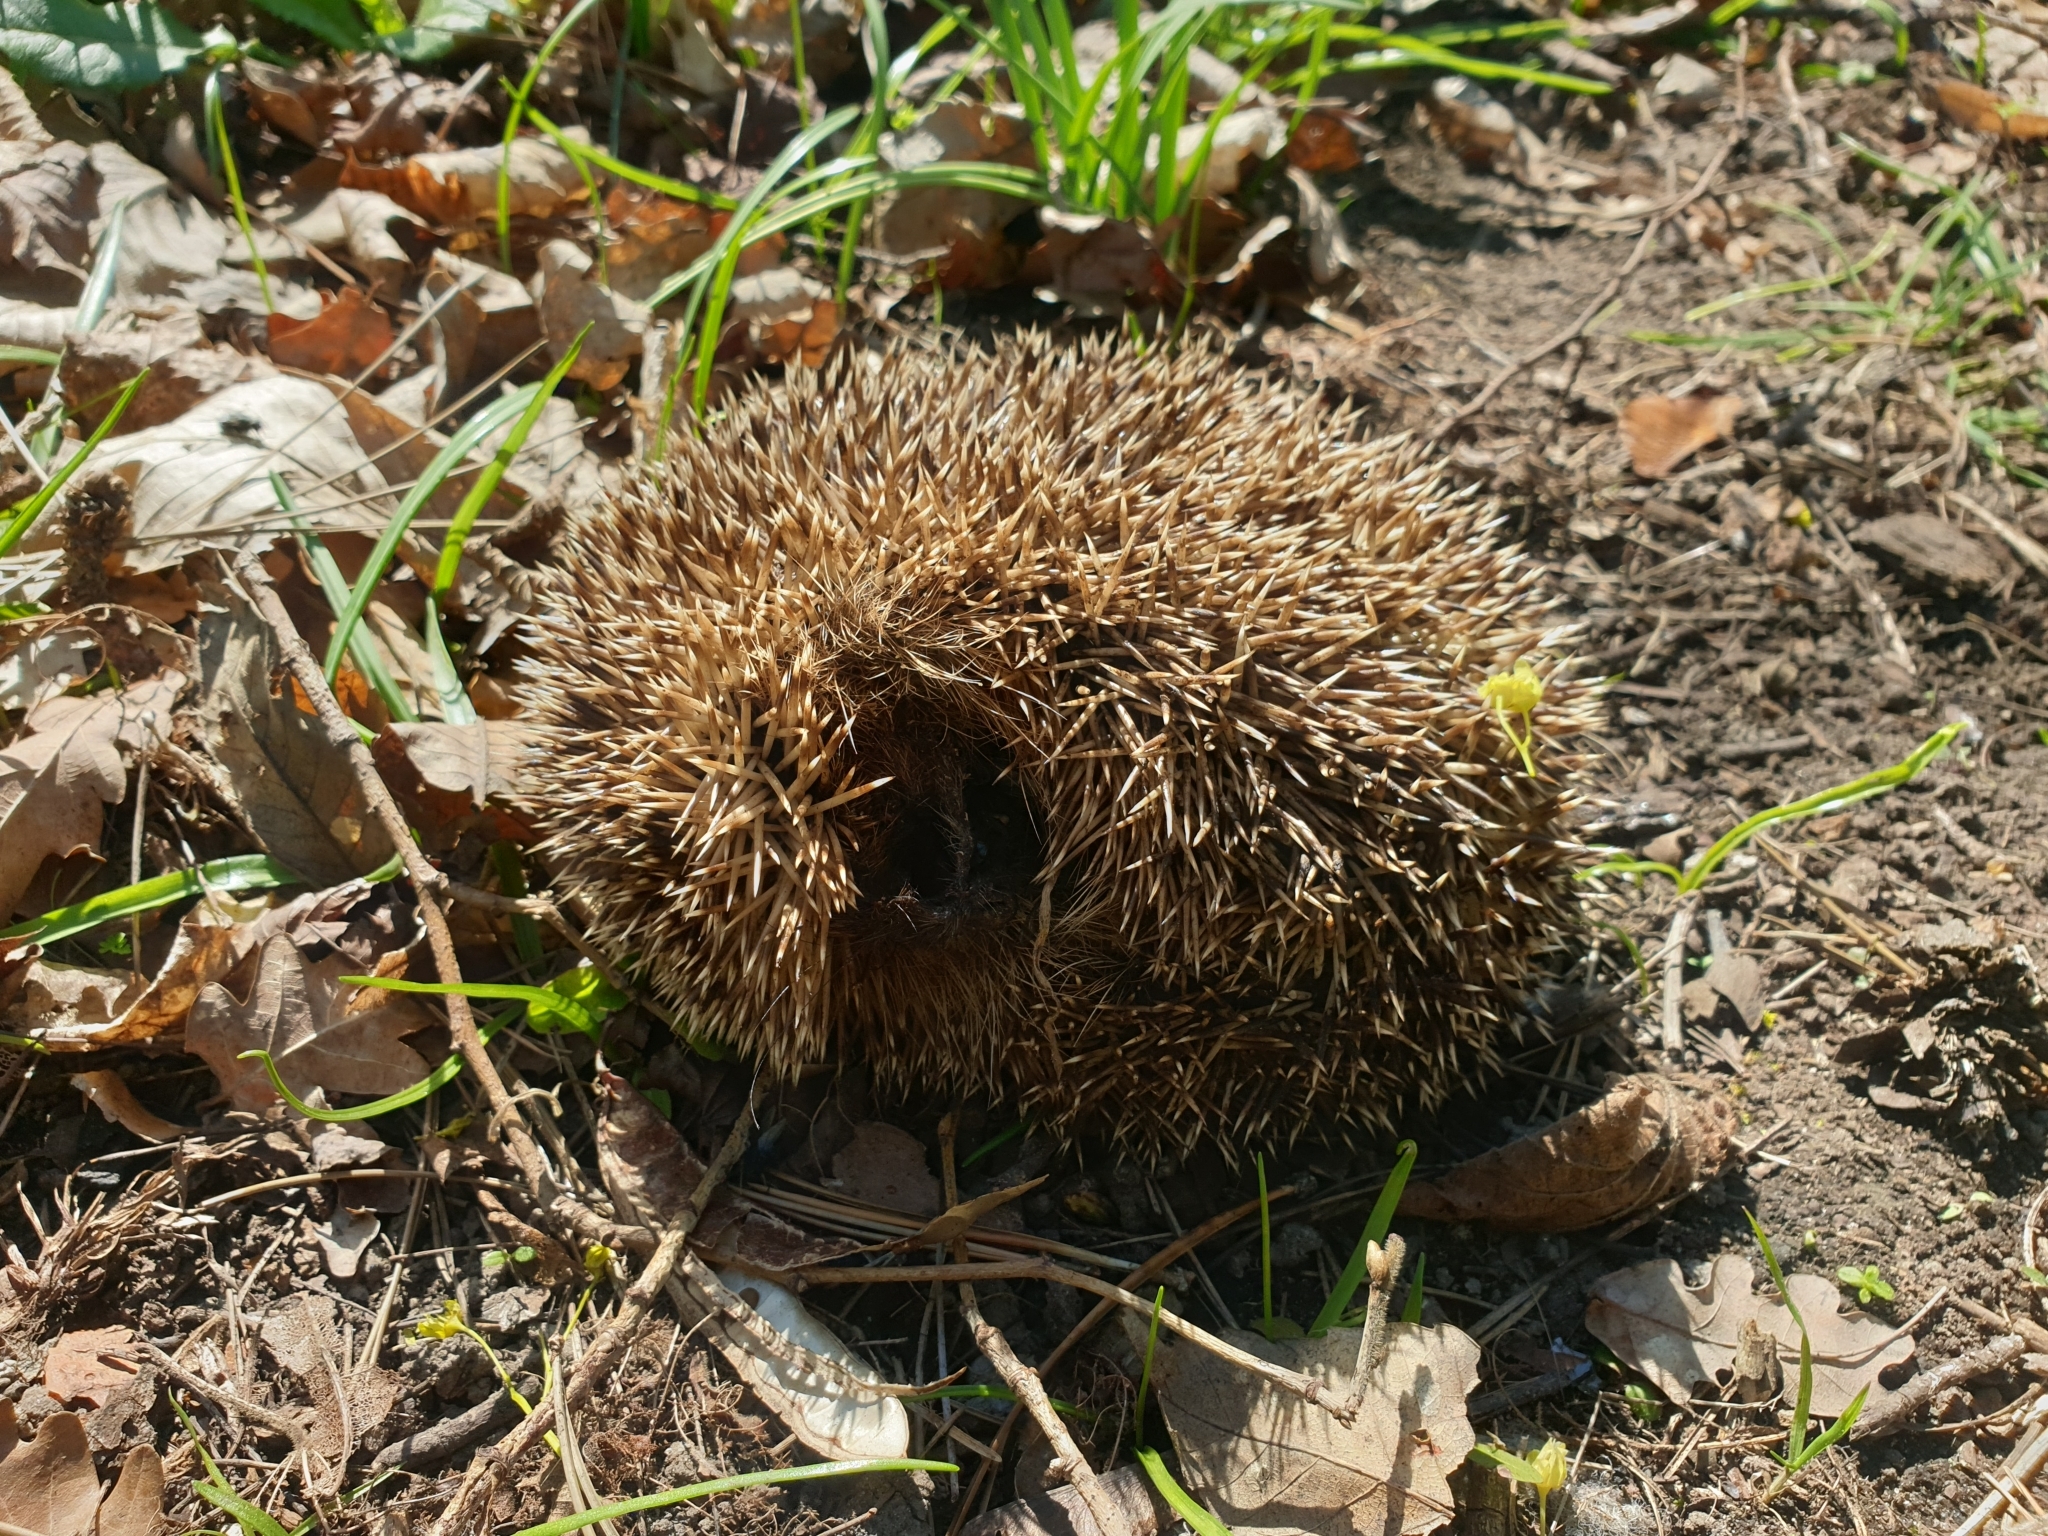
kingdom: Animalia
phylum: Chordata
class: Mammalia
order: Erinaceomorpha
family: Erinaceidae
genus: Erinaceus
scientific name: Erinaceus europaeus
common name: West european hedgehog
